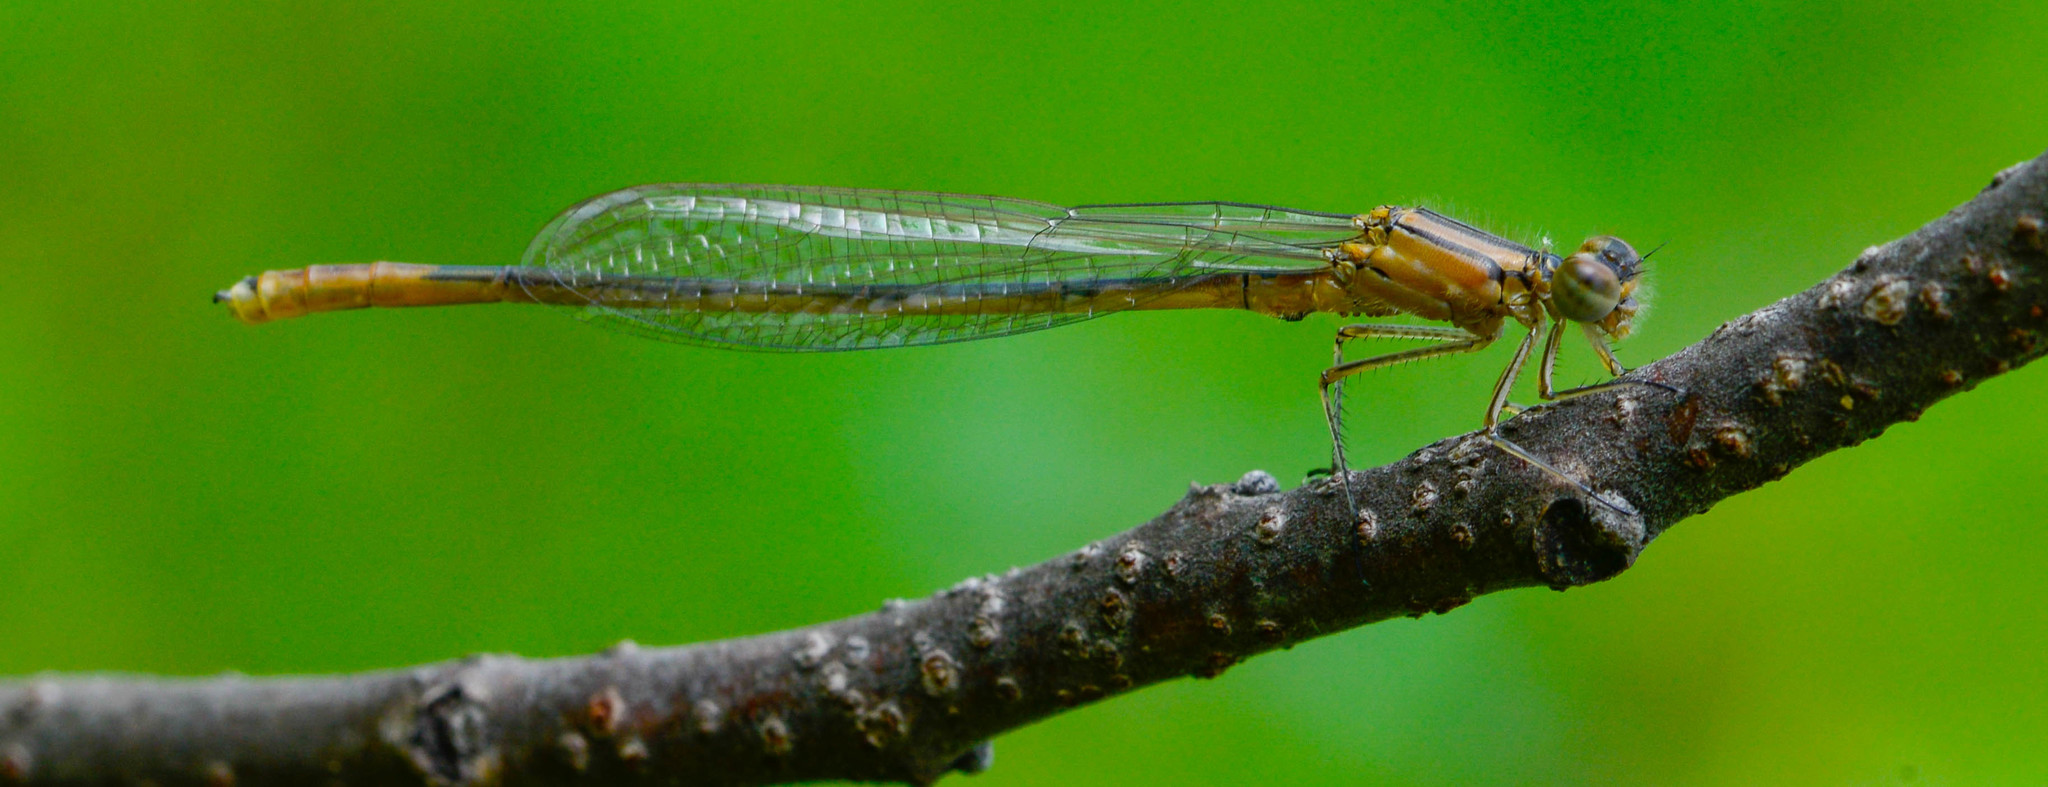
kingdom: Animalia
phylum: Arthropoda
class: Insecta
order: Odonata
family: Coenagrionidae
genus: Enallagma
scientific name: Enallagma aspersum
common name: Azure bluet
